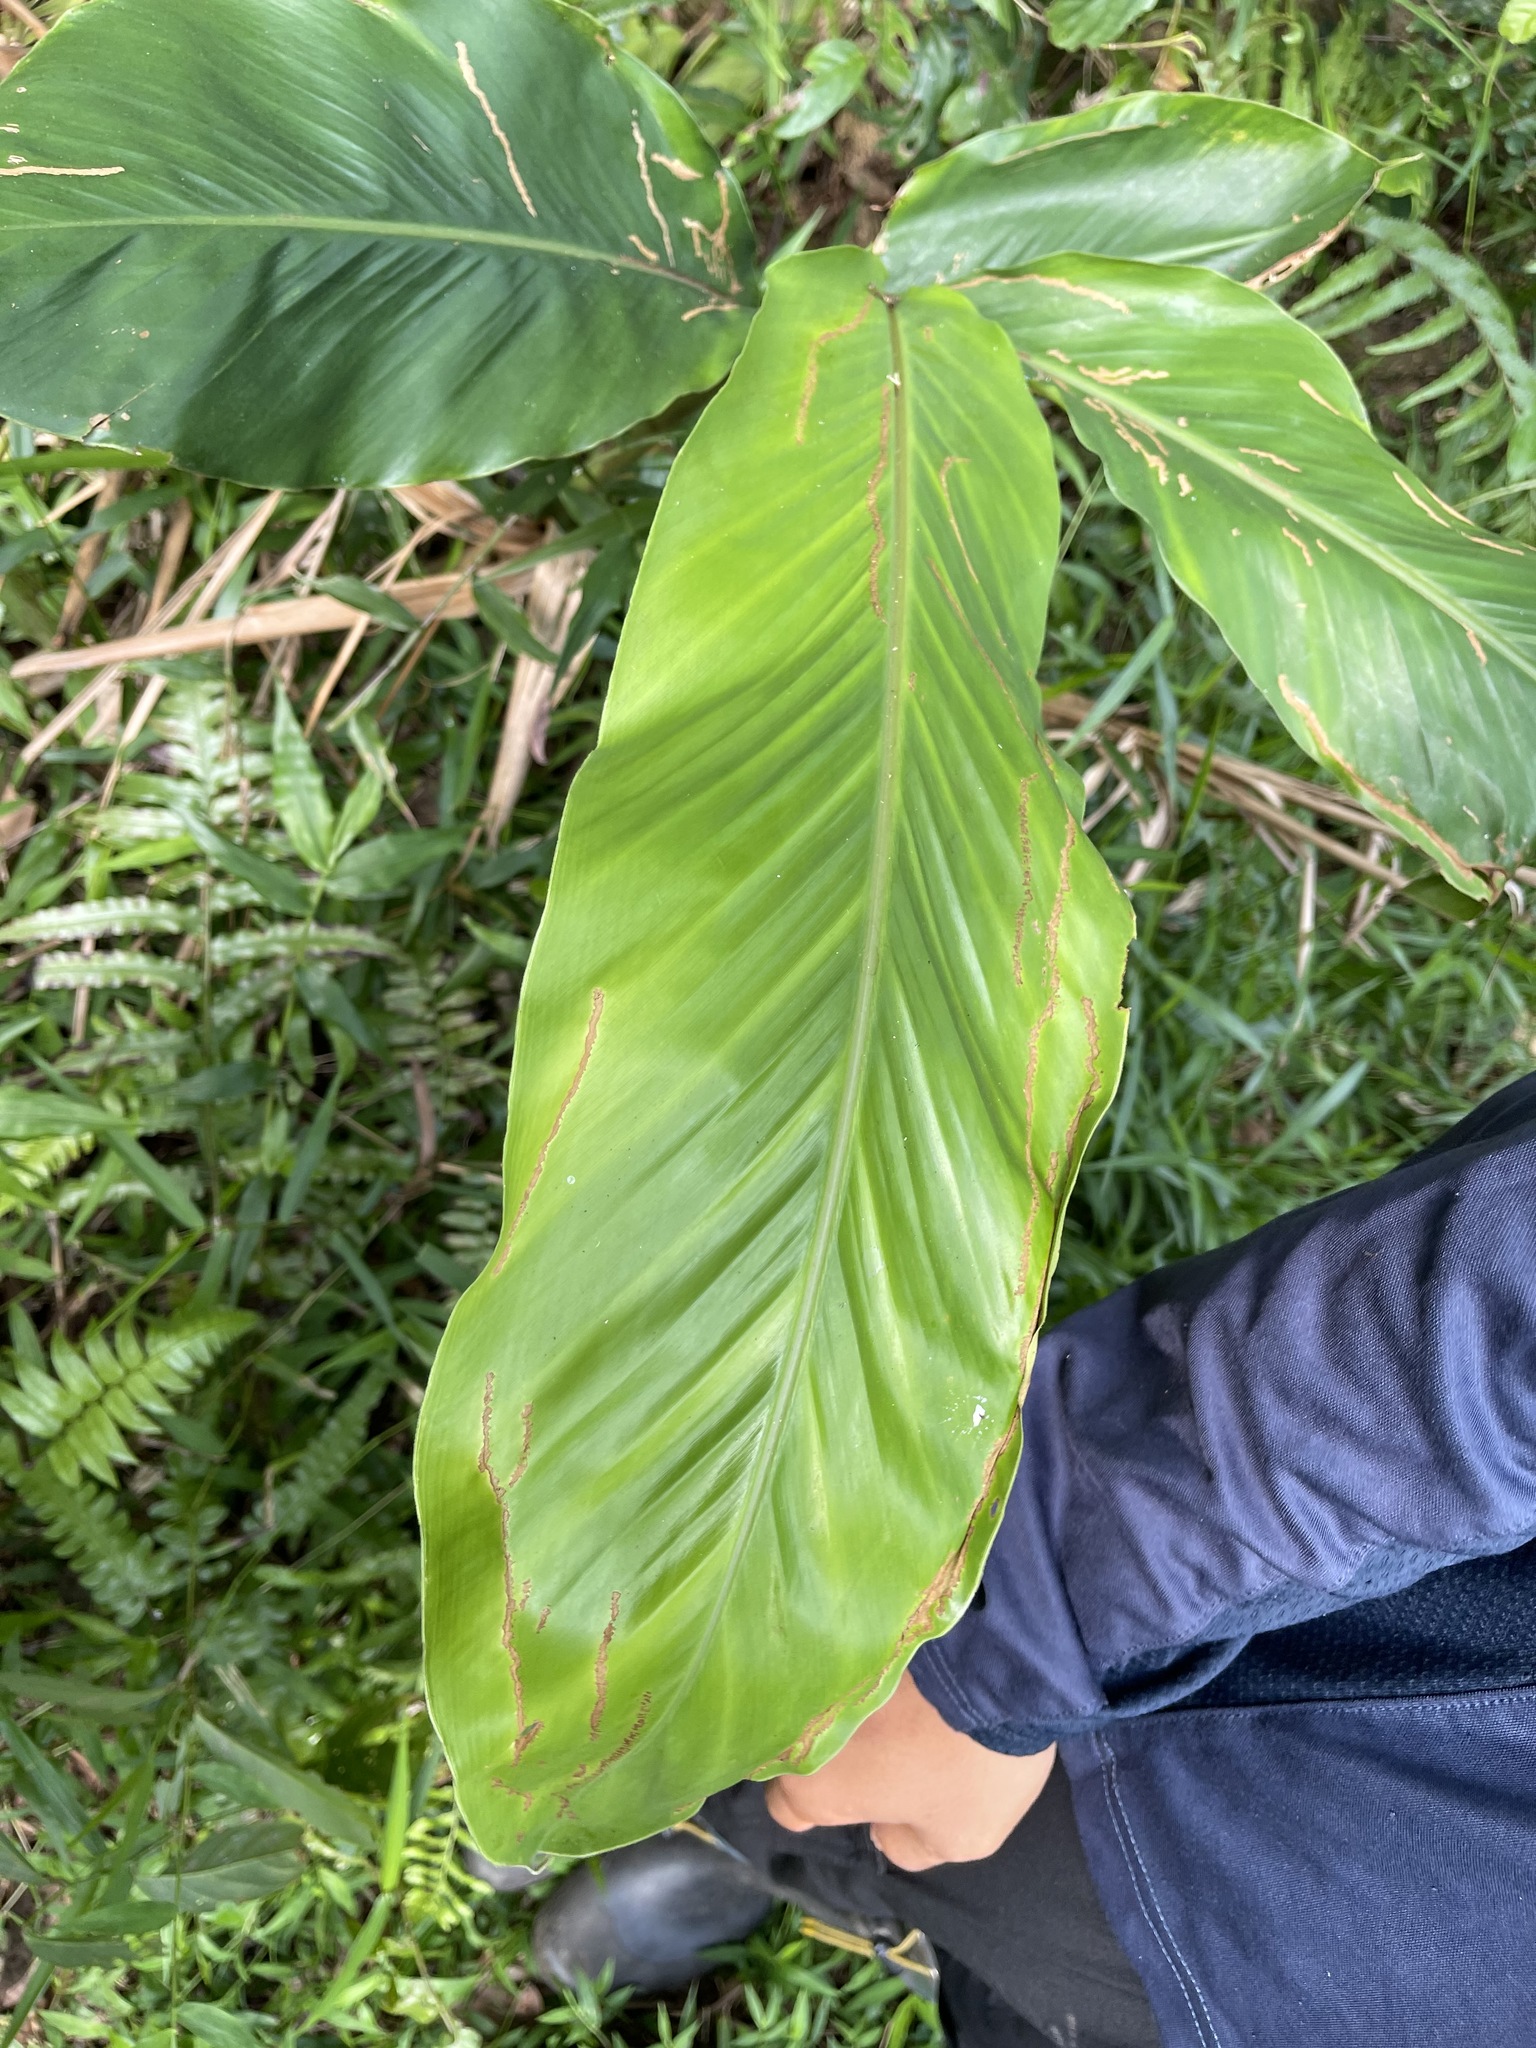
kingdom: Plantae
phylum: Tracheophyta
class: Liliopsida
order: Zingiberales
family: Zingiberaceae
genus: Alpinia
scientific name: Alpinia uraiensis
